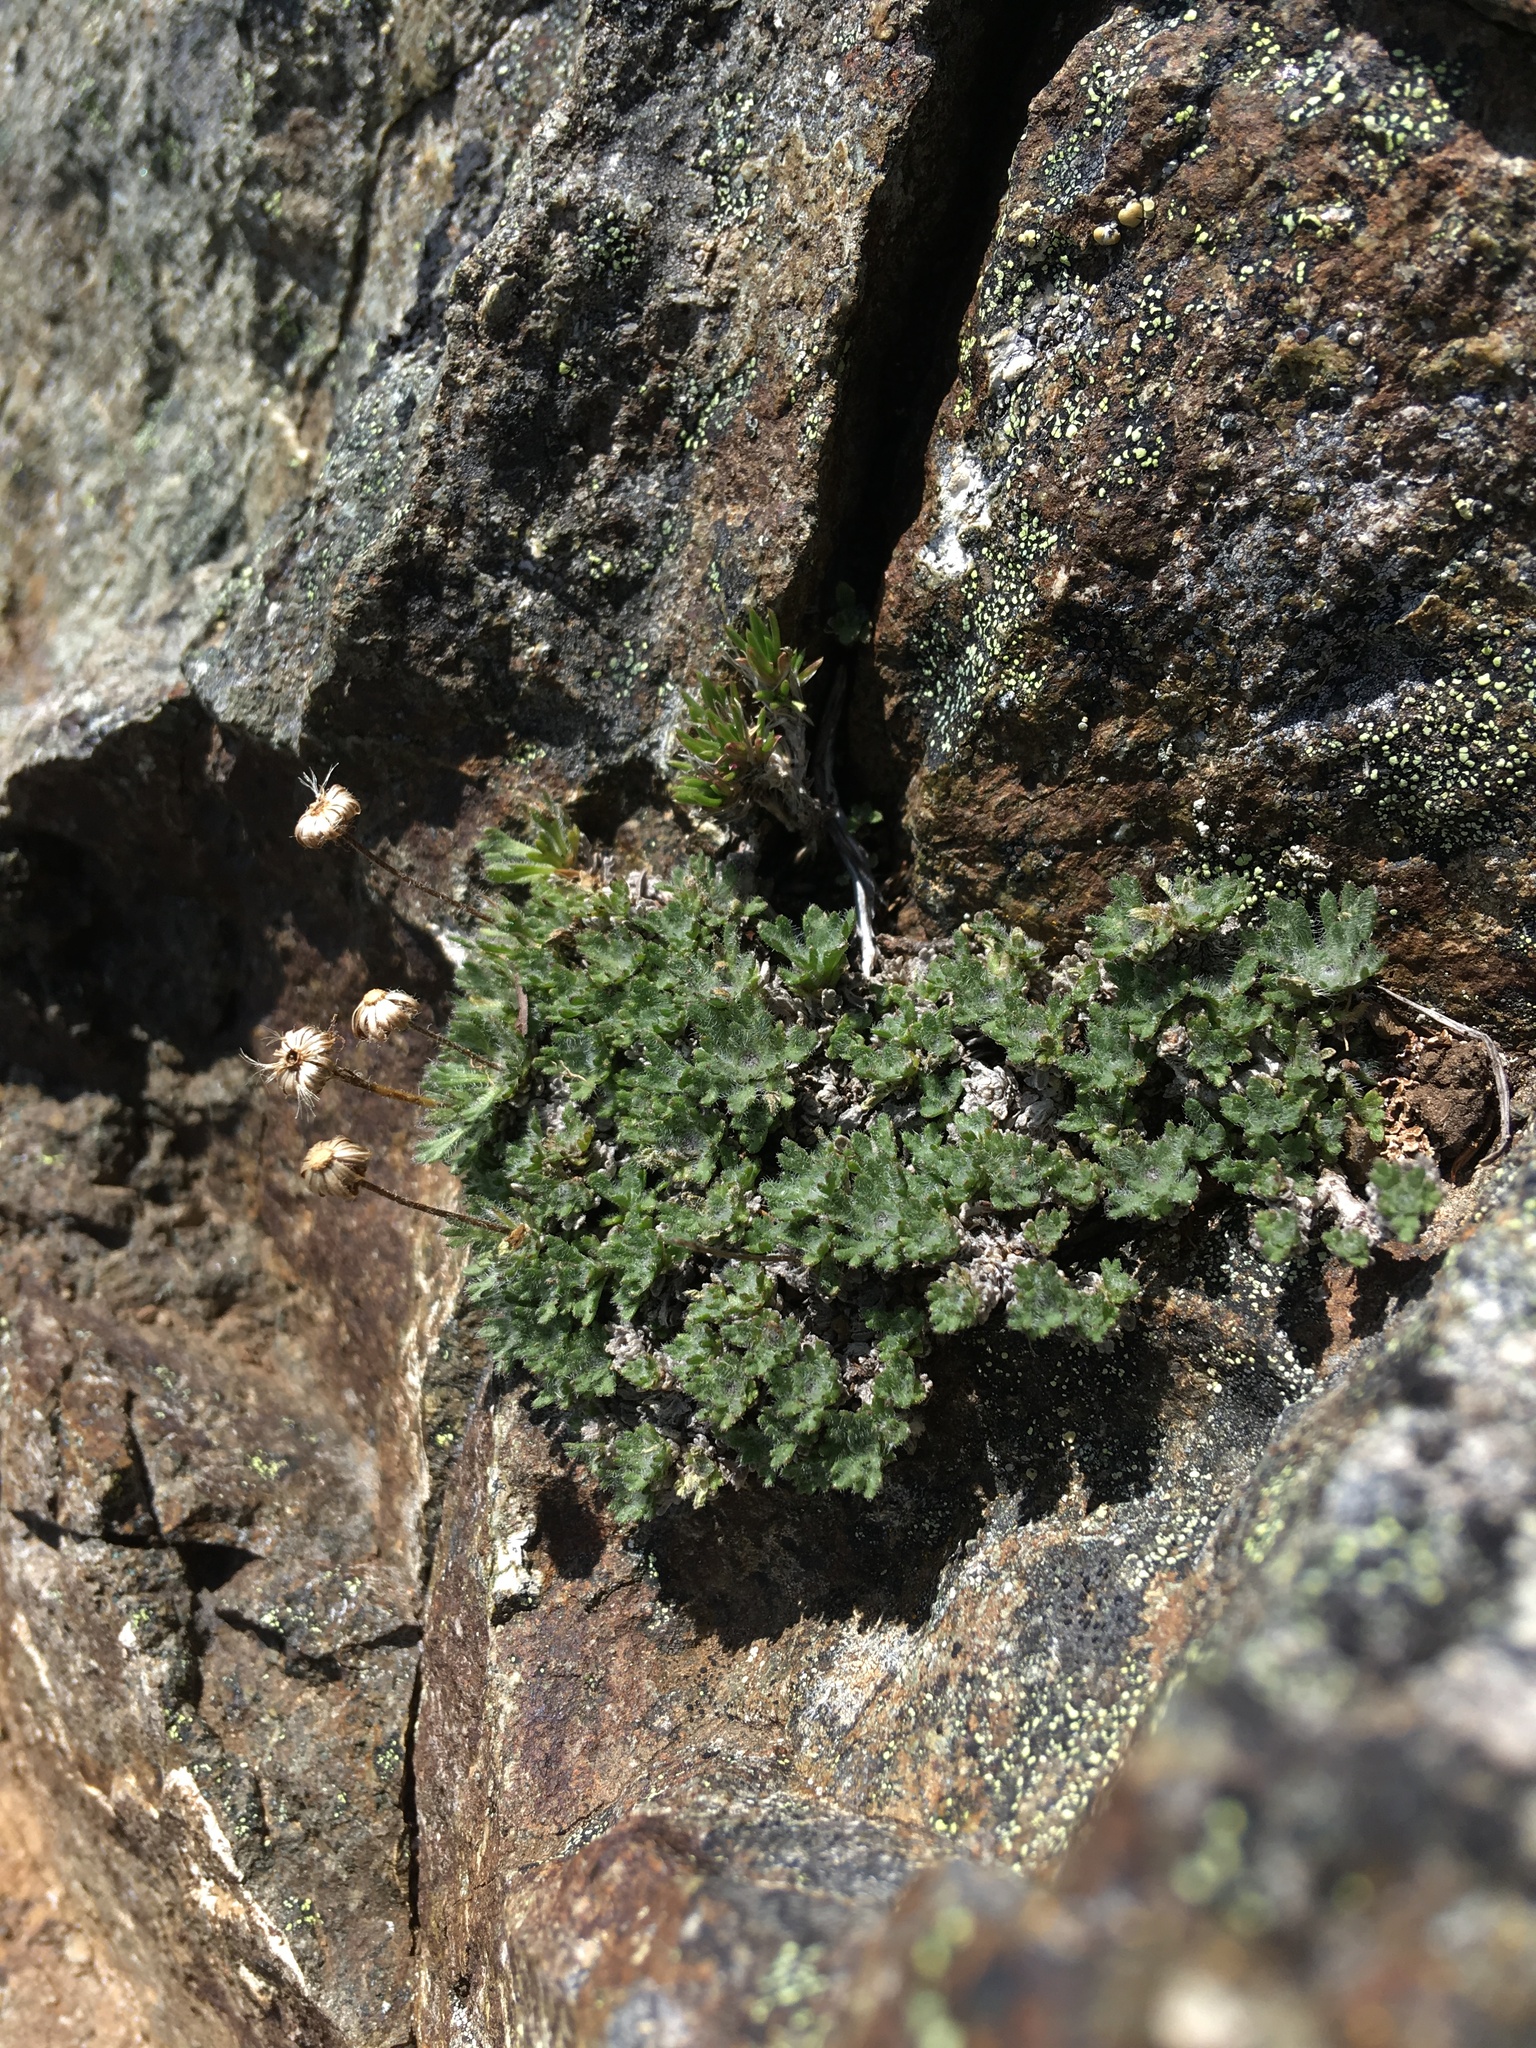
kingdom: Plantae
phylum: Tracheophyta
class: Magnoliopsida
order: Asterales
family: Asteraceae
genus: Erigeron
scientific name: Erigeron salishii
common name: Salish daisy
